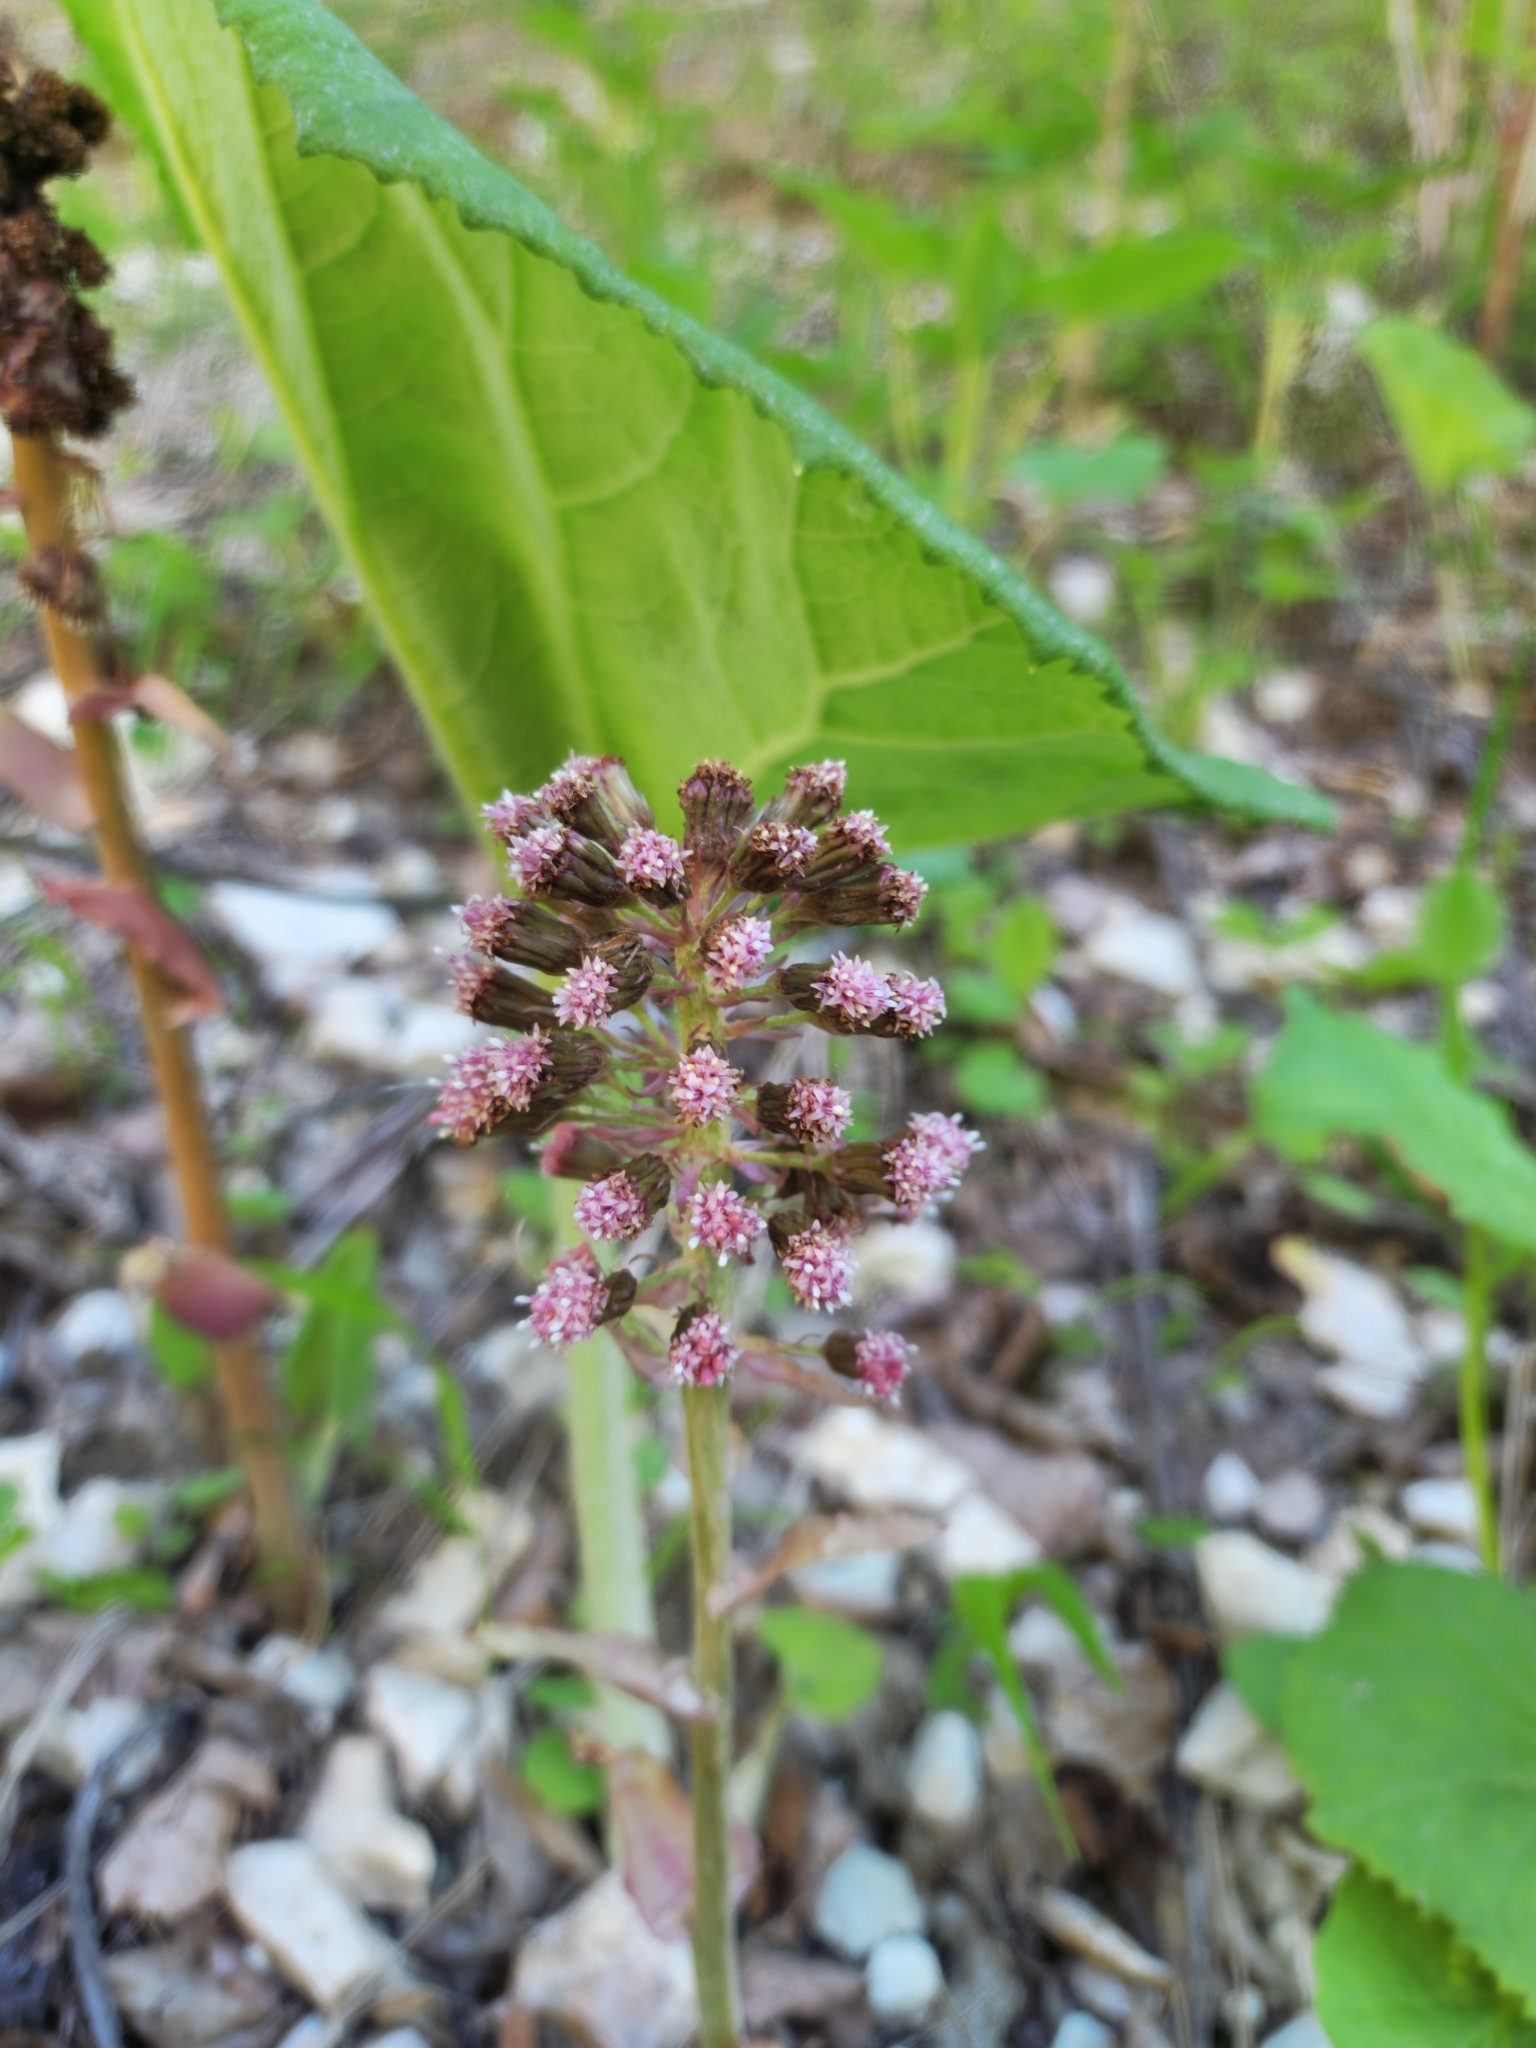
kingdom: Plantae
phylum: Tracheophyta
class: Magnoliopsida
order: Asterales
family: Asteraceae
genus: Petasites
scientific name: Petasites hybridus
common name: Butterbur
